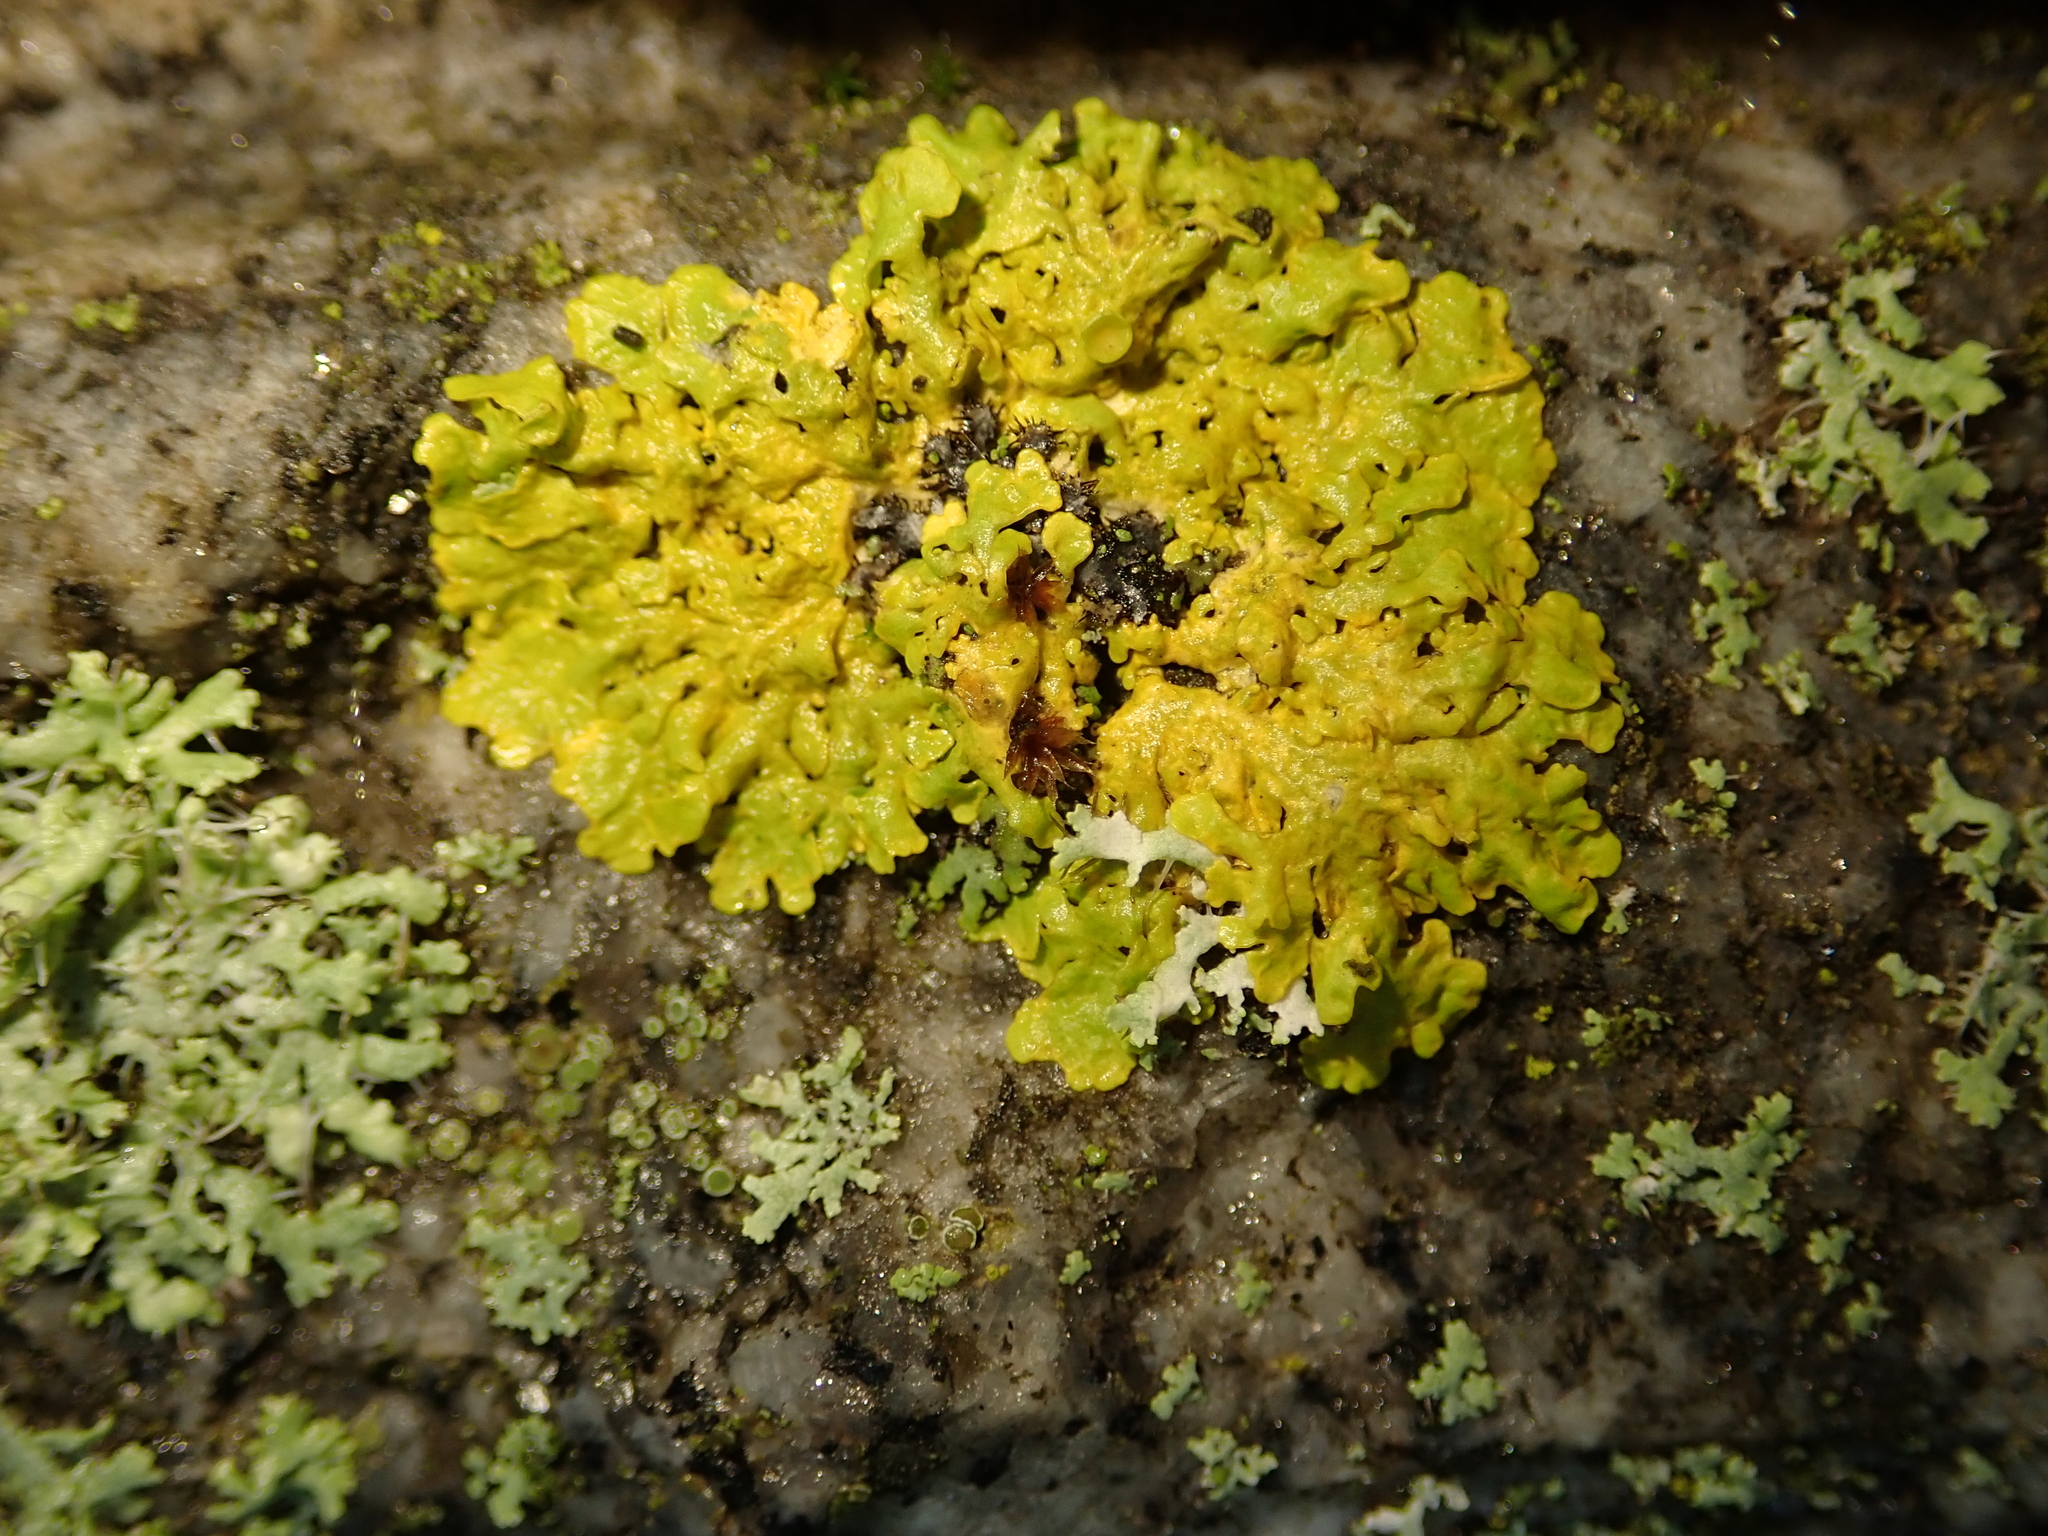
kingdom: Fungi
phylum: Ascomycota
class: Lecanoromycetes
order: Teloschistales
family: Teloschistaceae
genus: Xanthoria
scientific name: Xanthoria parietina
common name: Common orange lichen
